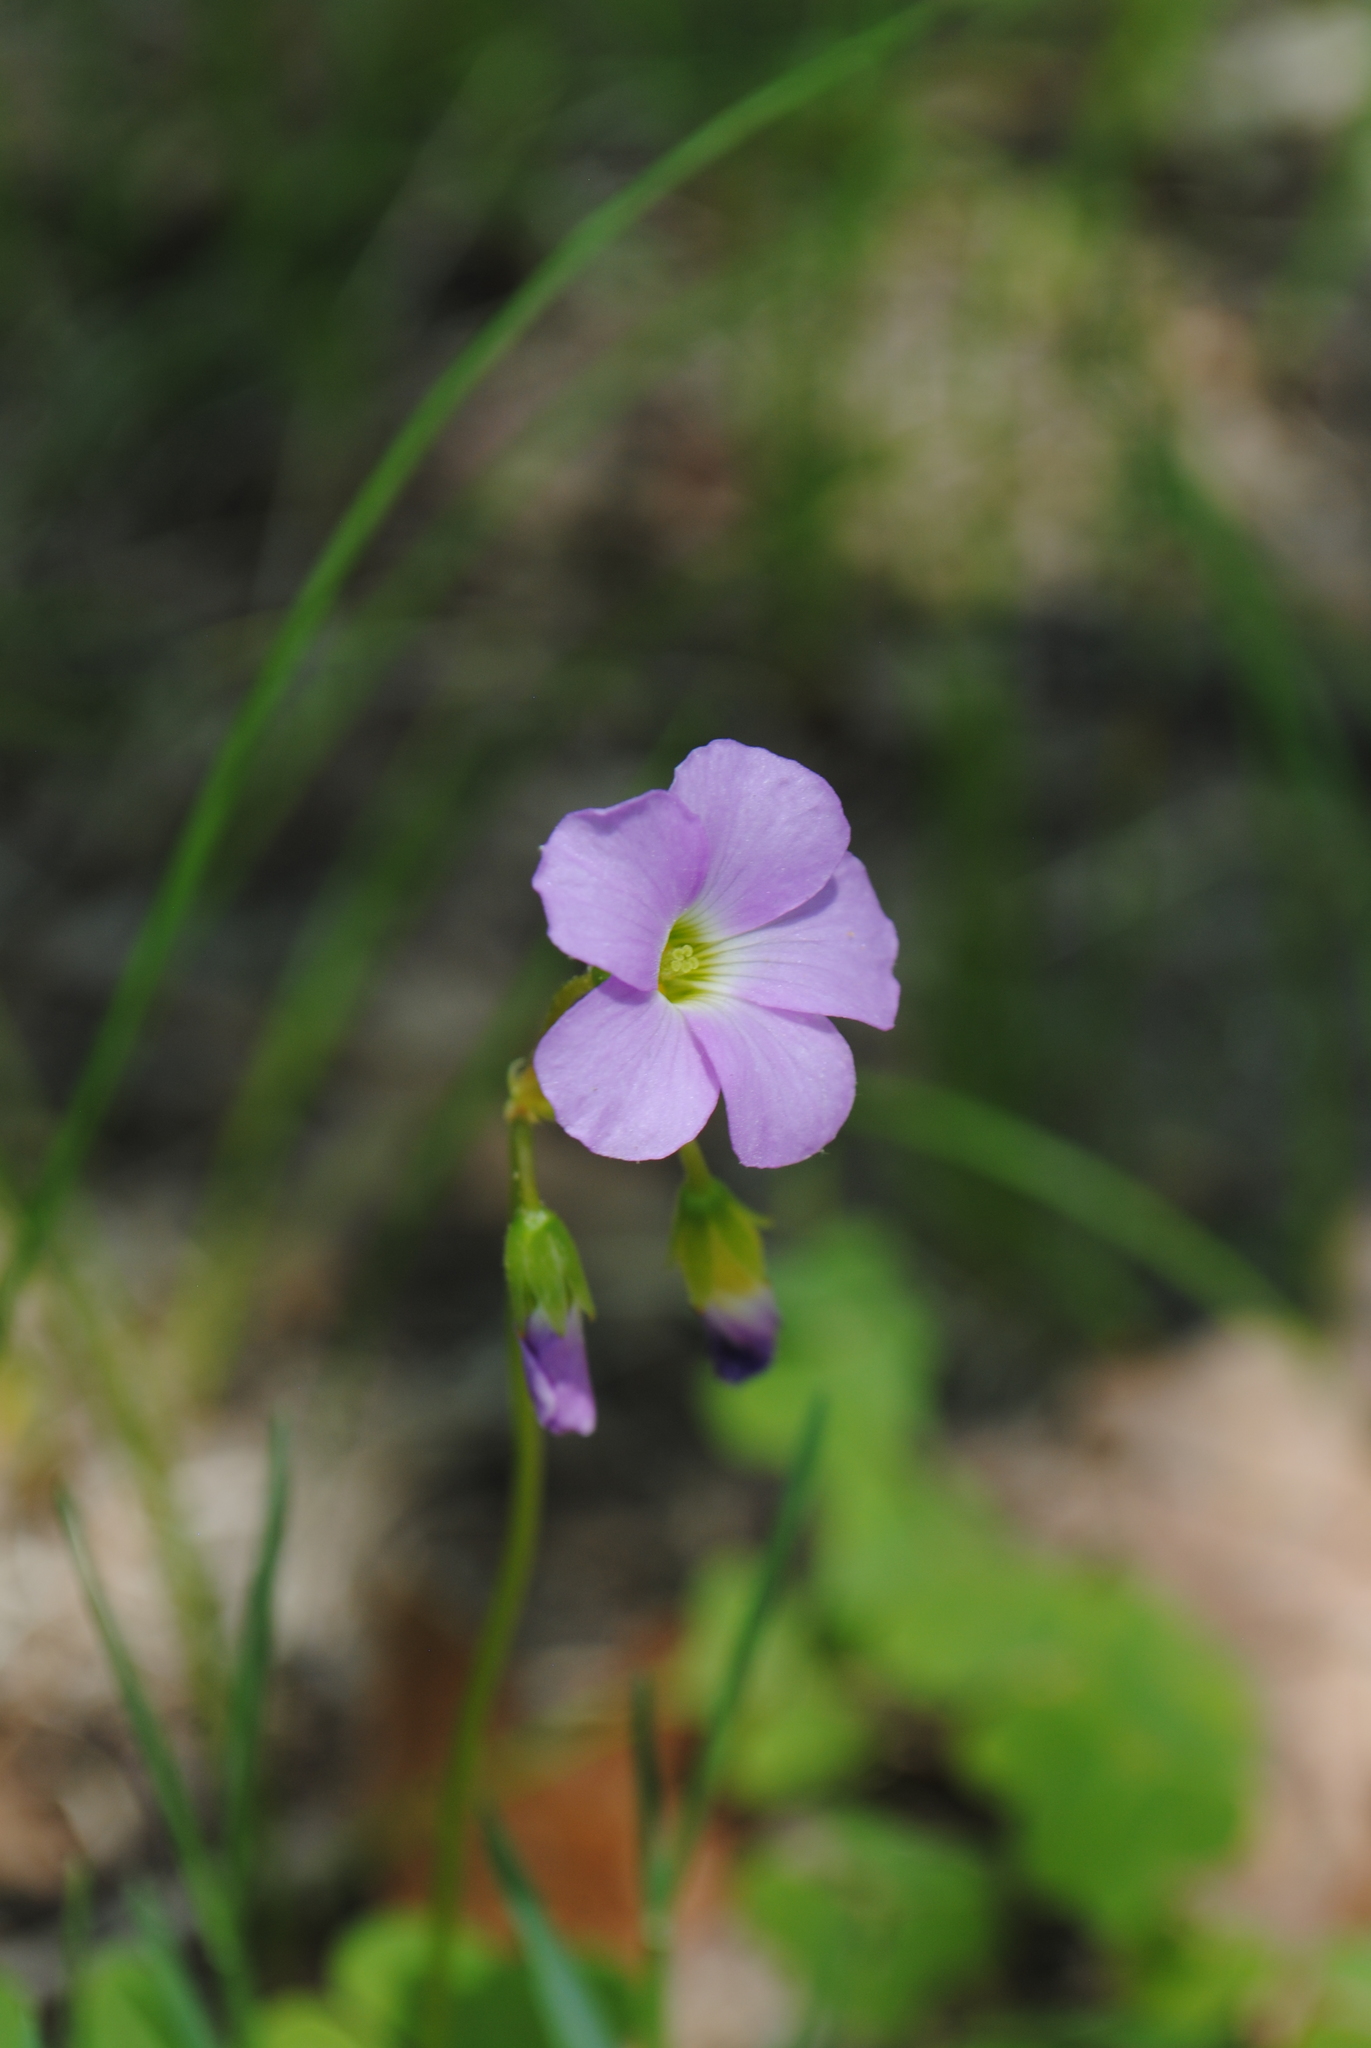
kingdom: Plantae
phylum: Tracheophyta
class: Magnoliopsida
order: Oxalidales
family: Oxalidaceae
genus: Oxalis
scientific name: Oxalis violacea
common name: Violet wood-sorrel
